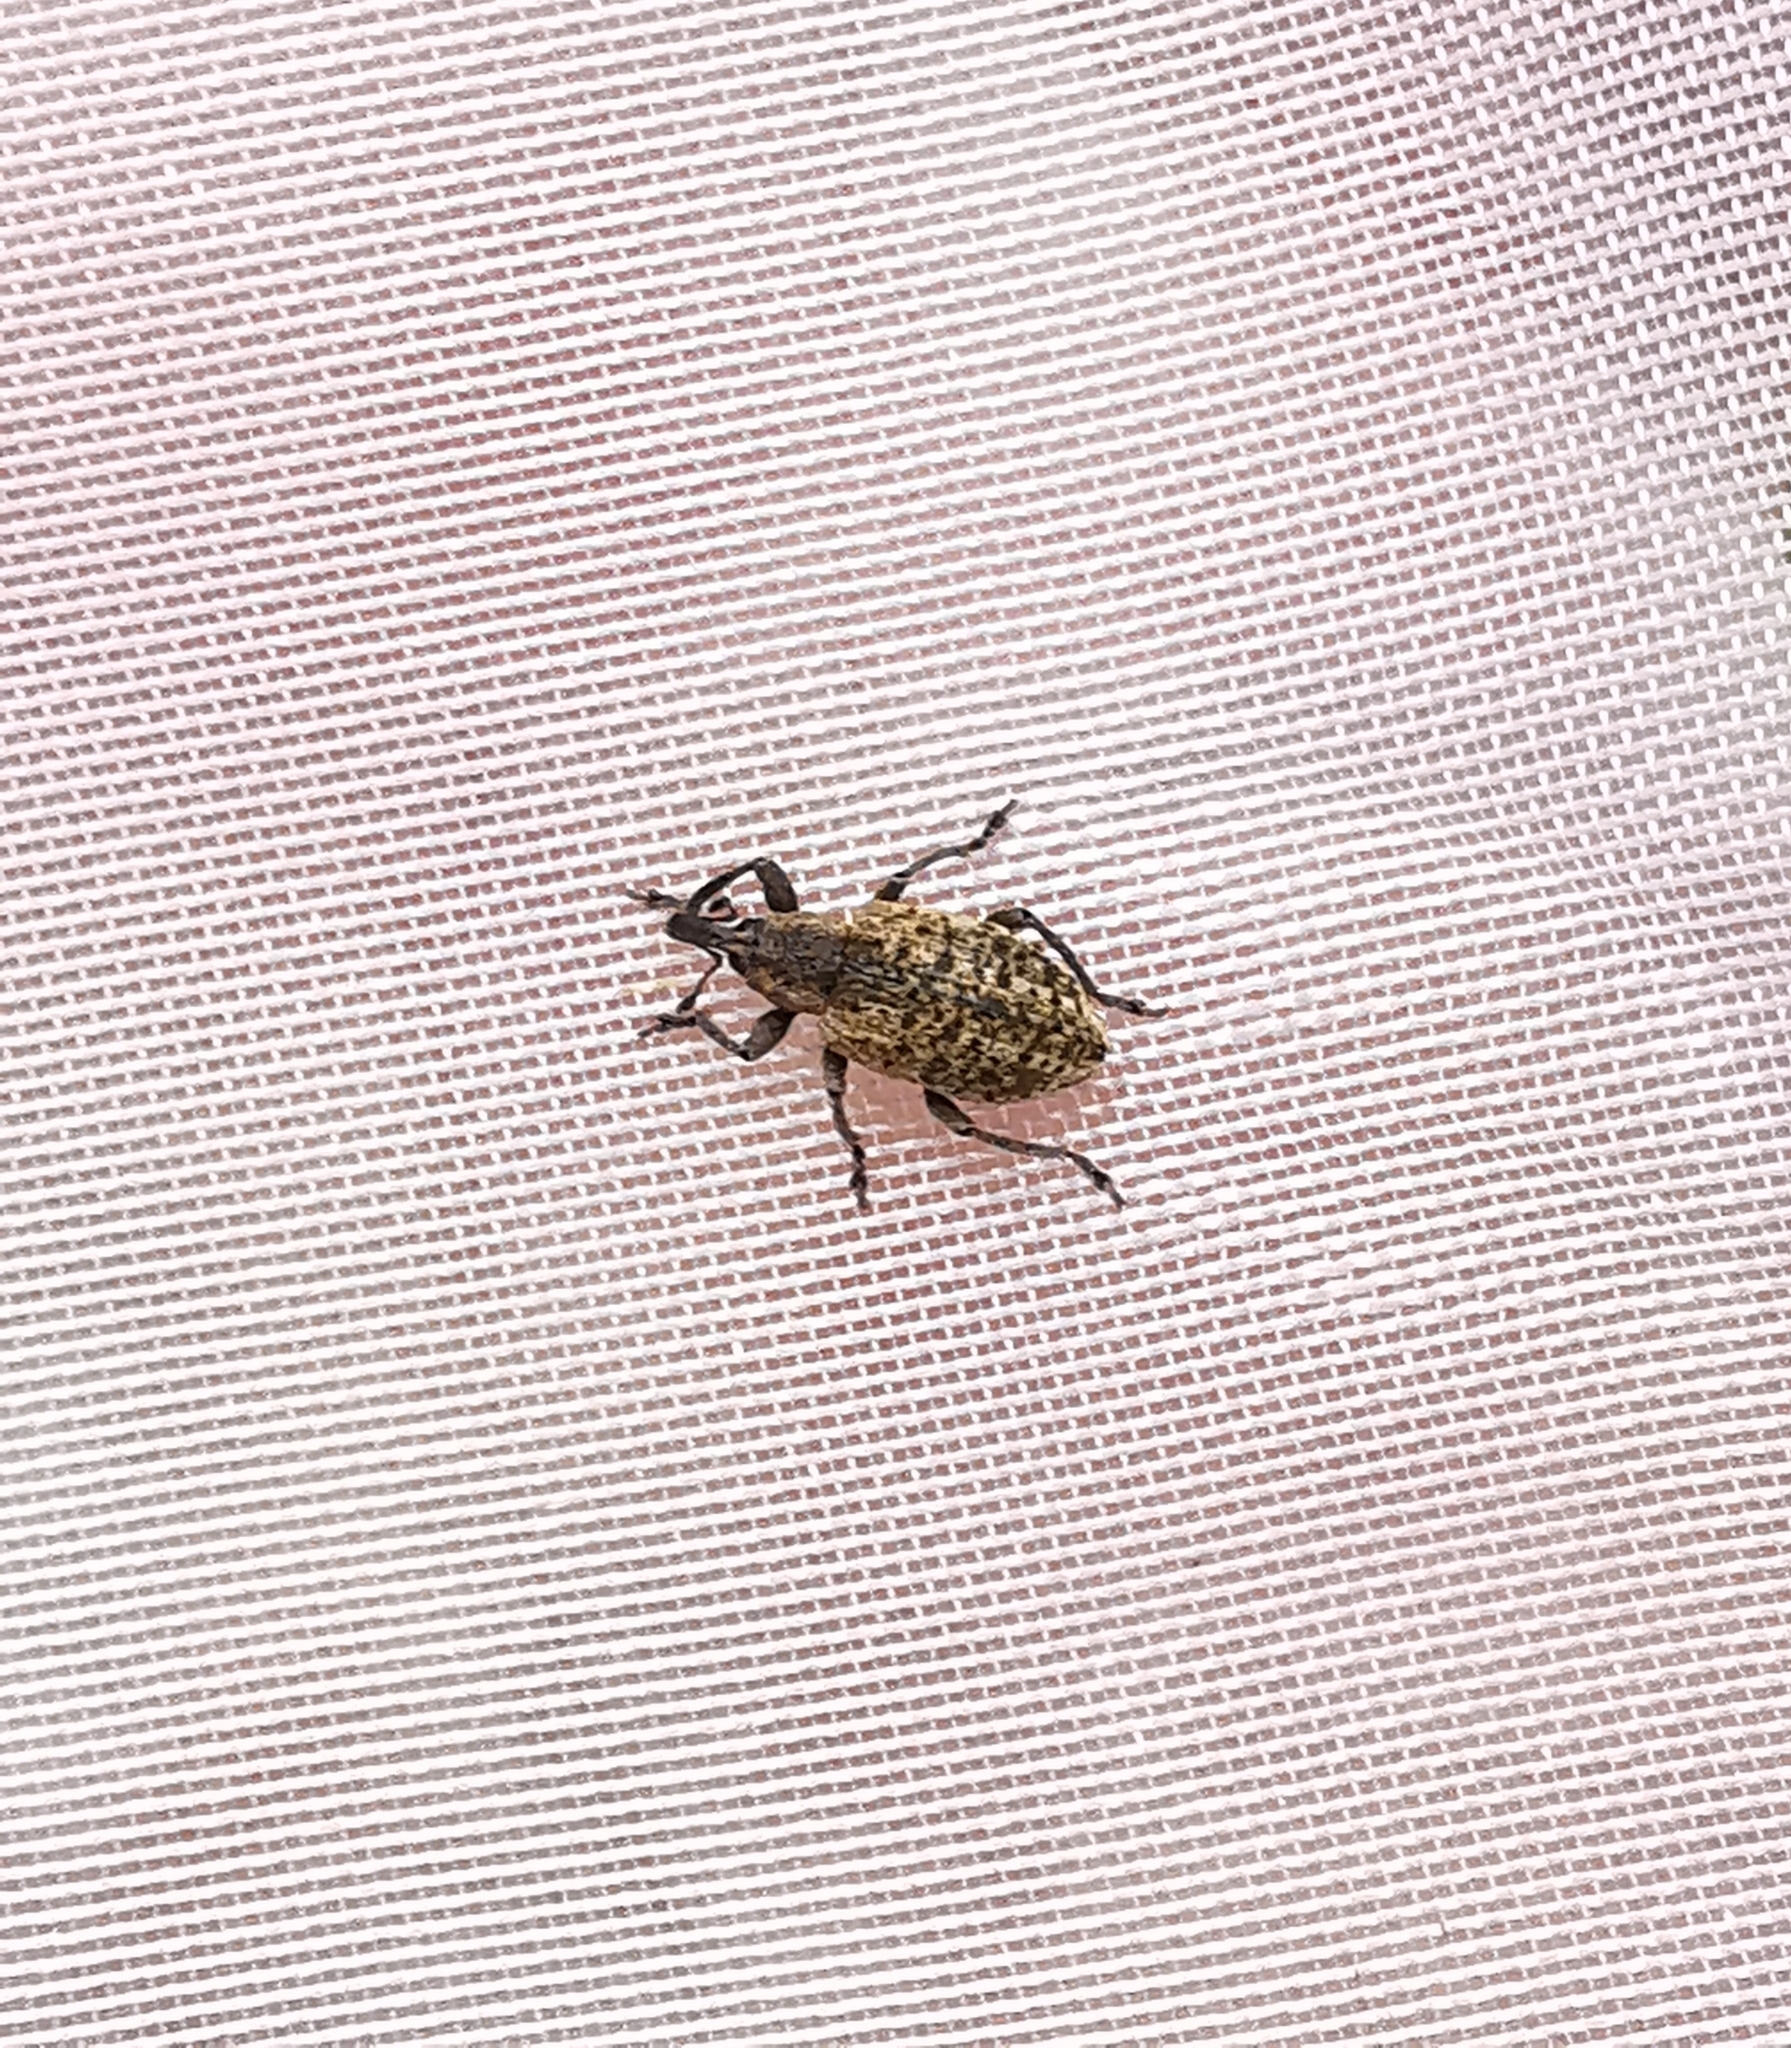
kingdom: Animalia
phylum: Arthropoda
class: Insecta
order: Coleoptera
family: Curculionidae
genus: Hypera
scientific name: Hypera conmaculata
